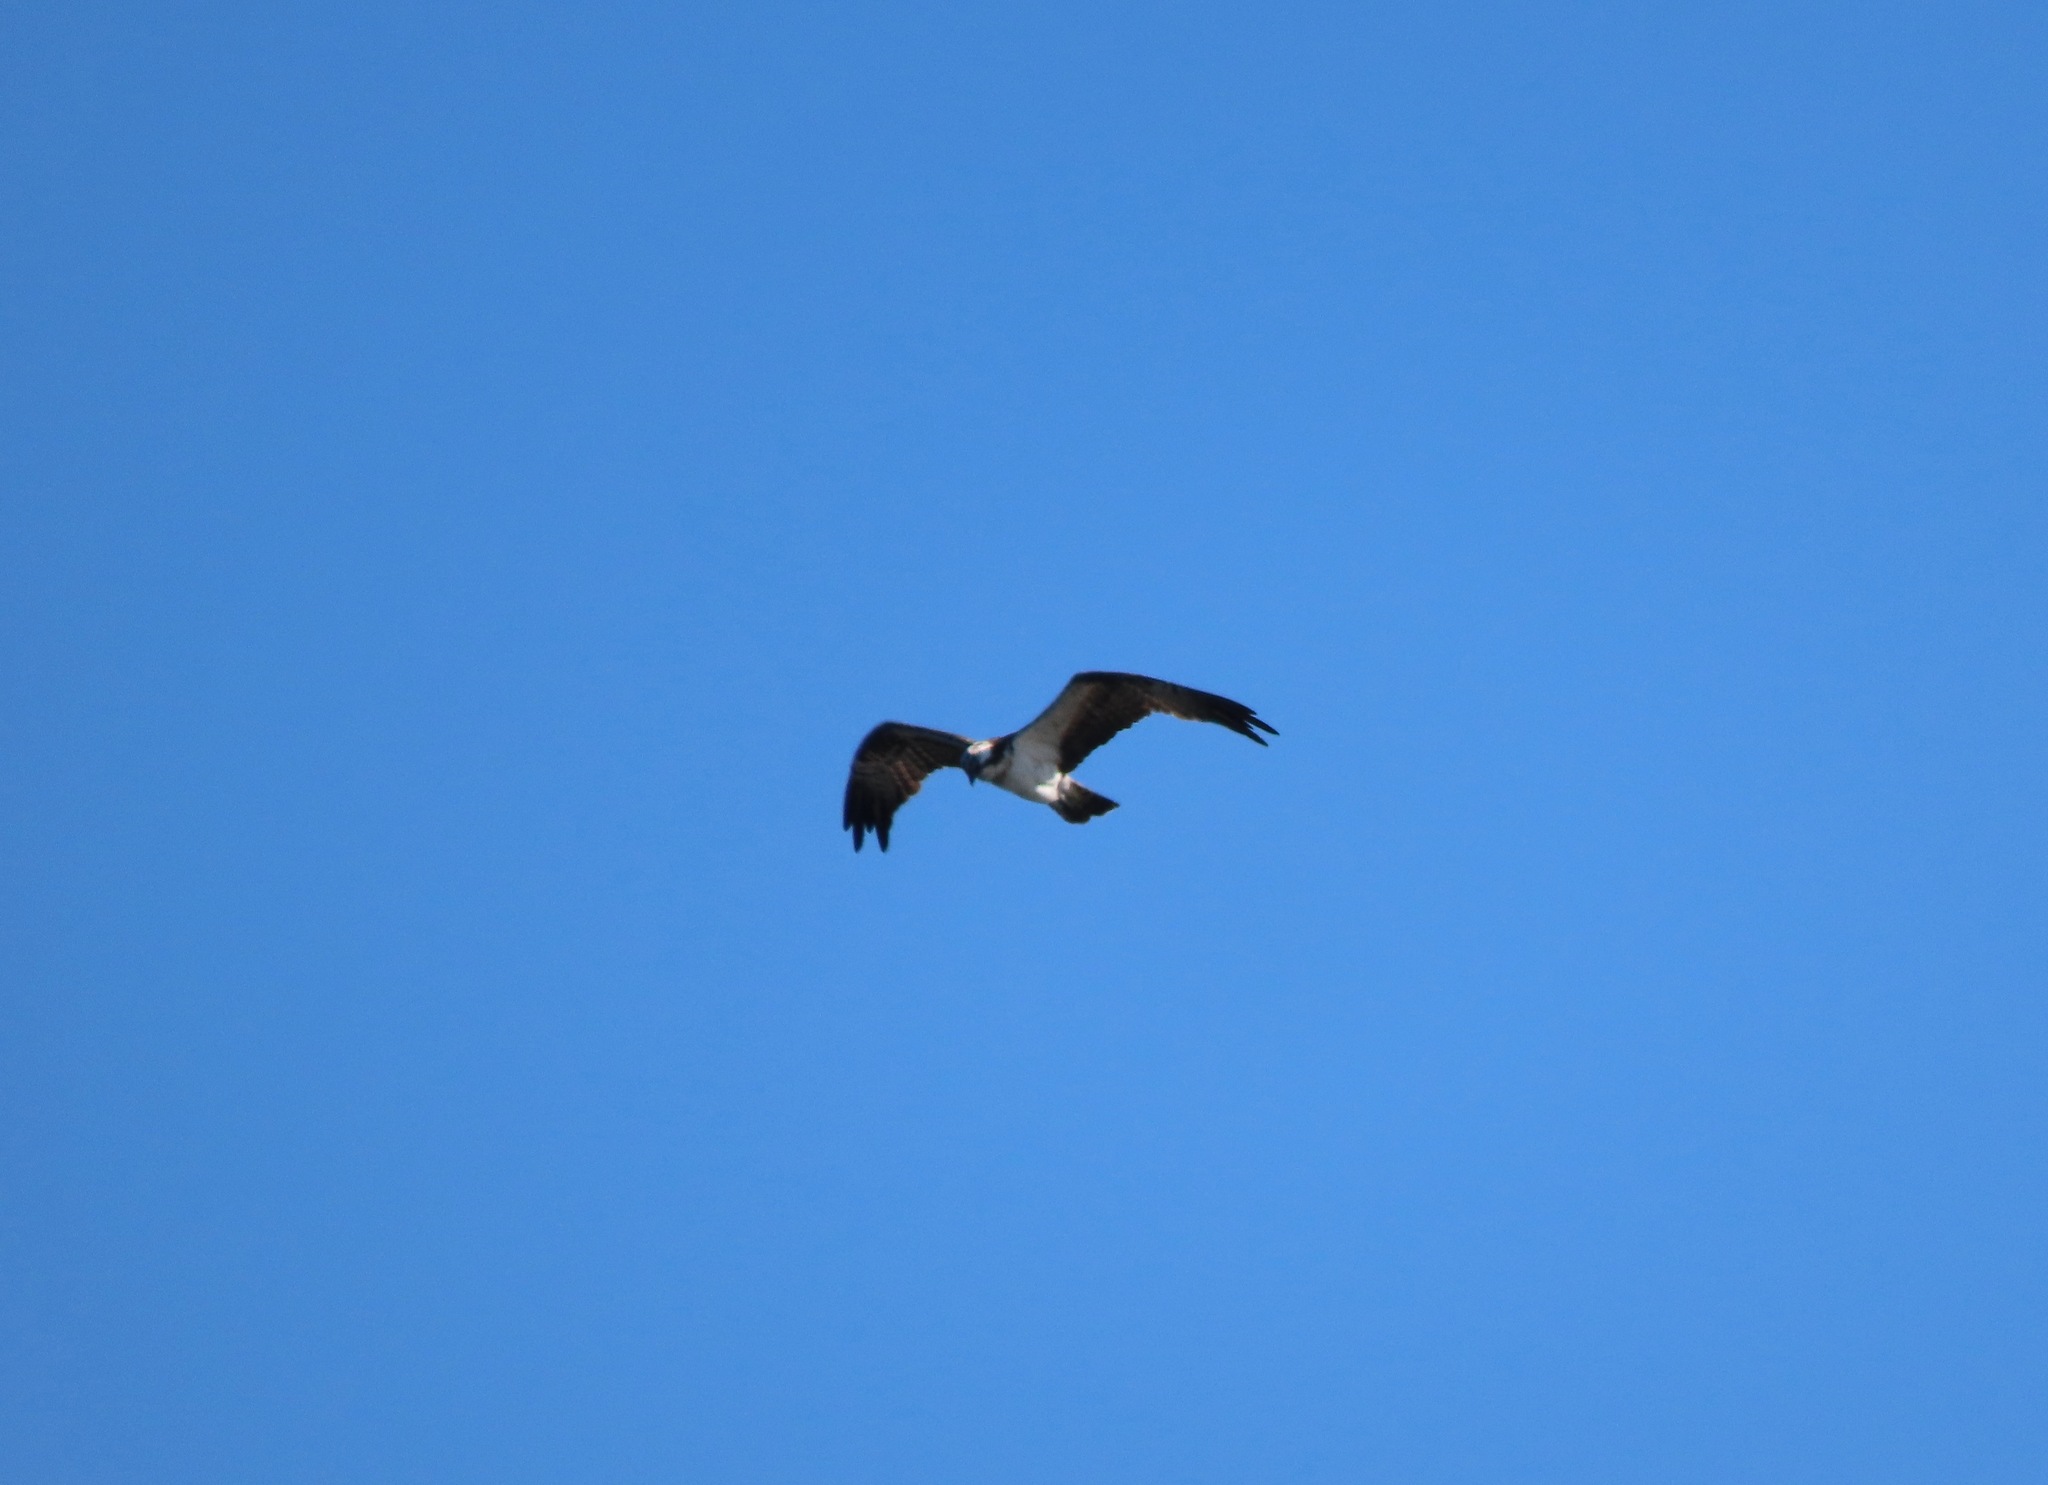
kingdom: Animalia
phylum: Chordata
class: Aves
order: Accipitriformes
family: Pandionidae
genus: Pandion
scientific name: Pandion haliaetus
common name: Osprey
